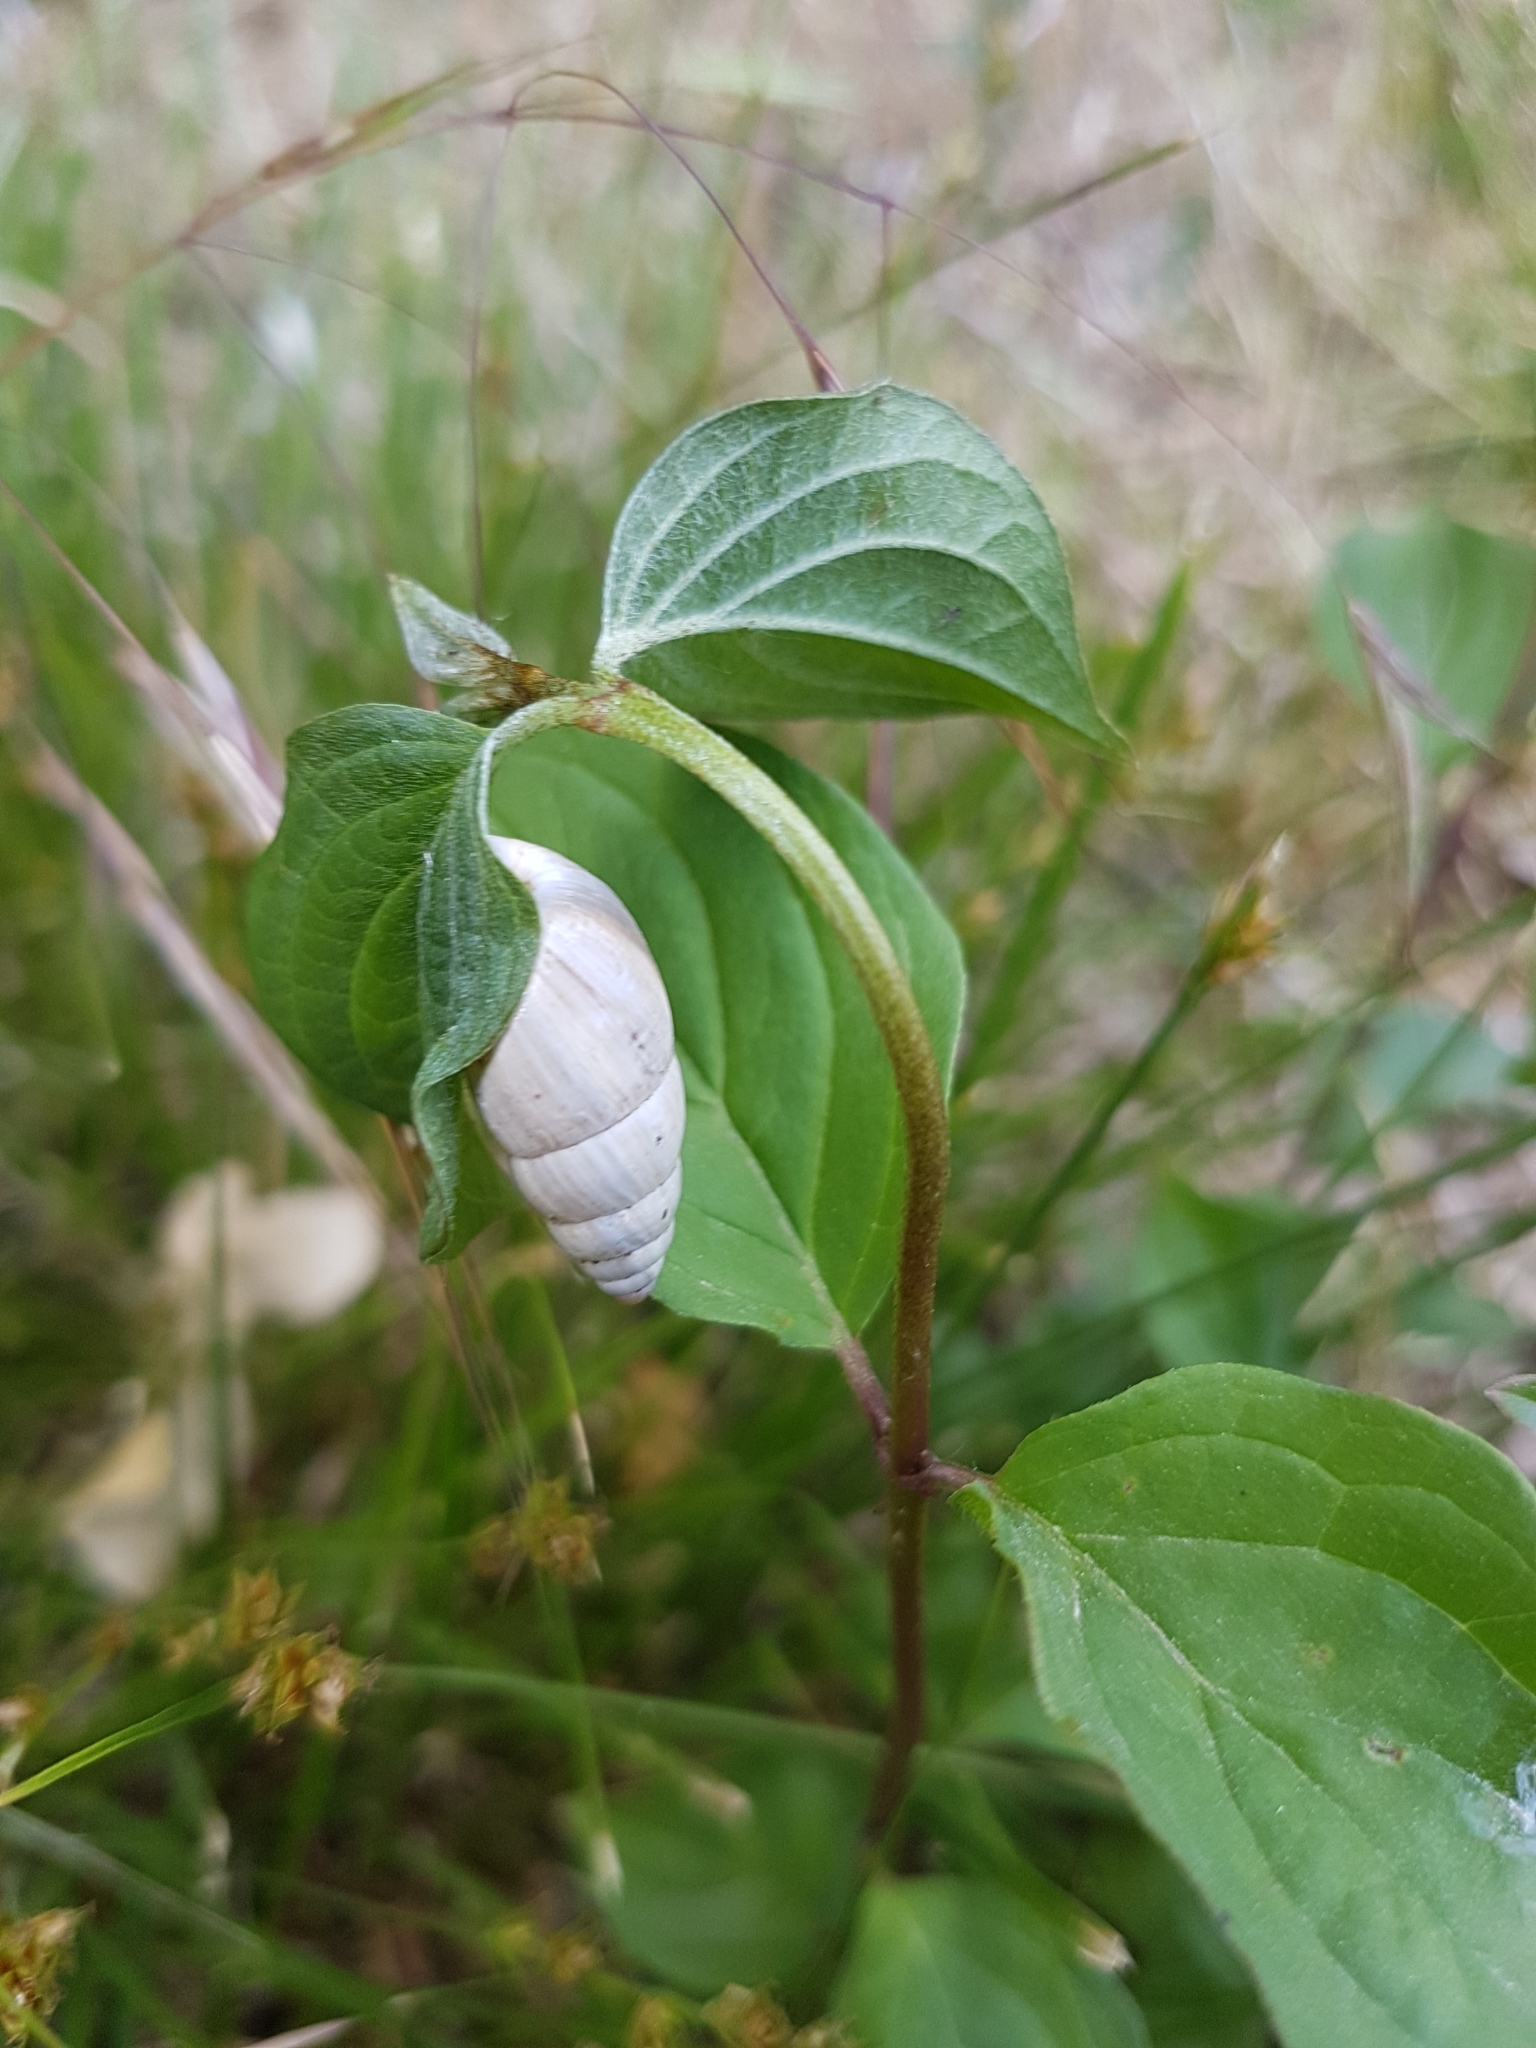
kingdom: Animalia
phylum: Mollusca
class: Gastropoda
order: Stylommatophora
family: Enidae
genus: Zebrina
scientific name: Zebrina detrita
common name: Large bulin
